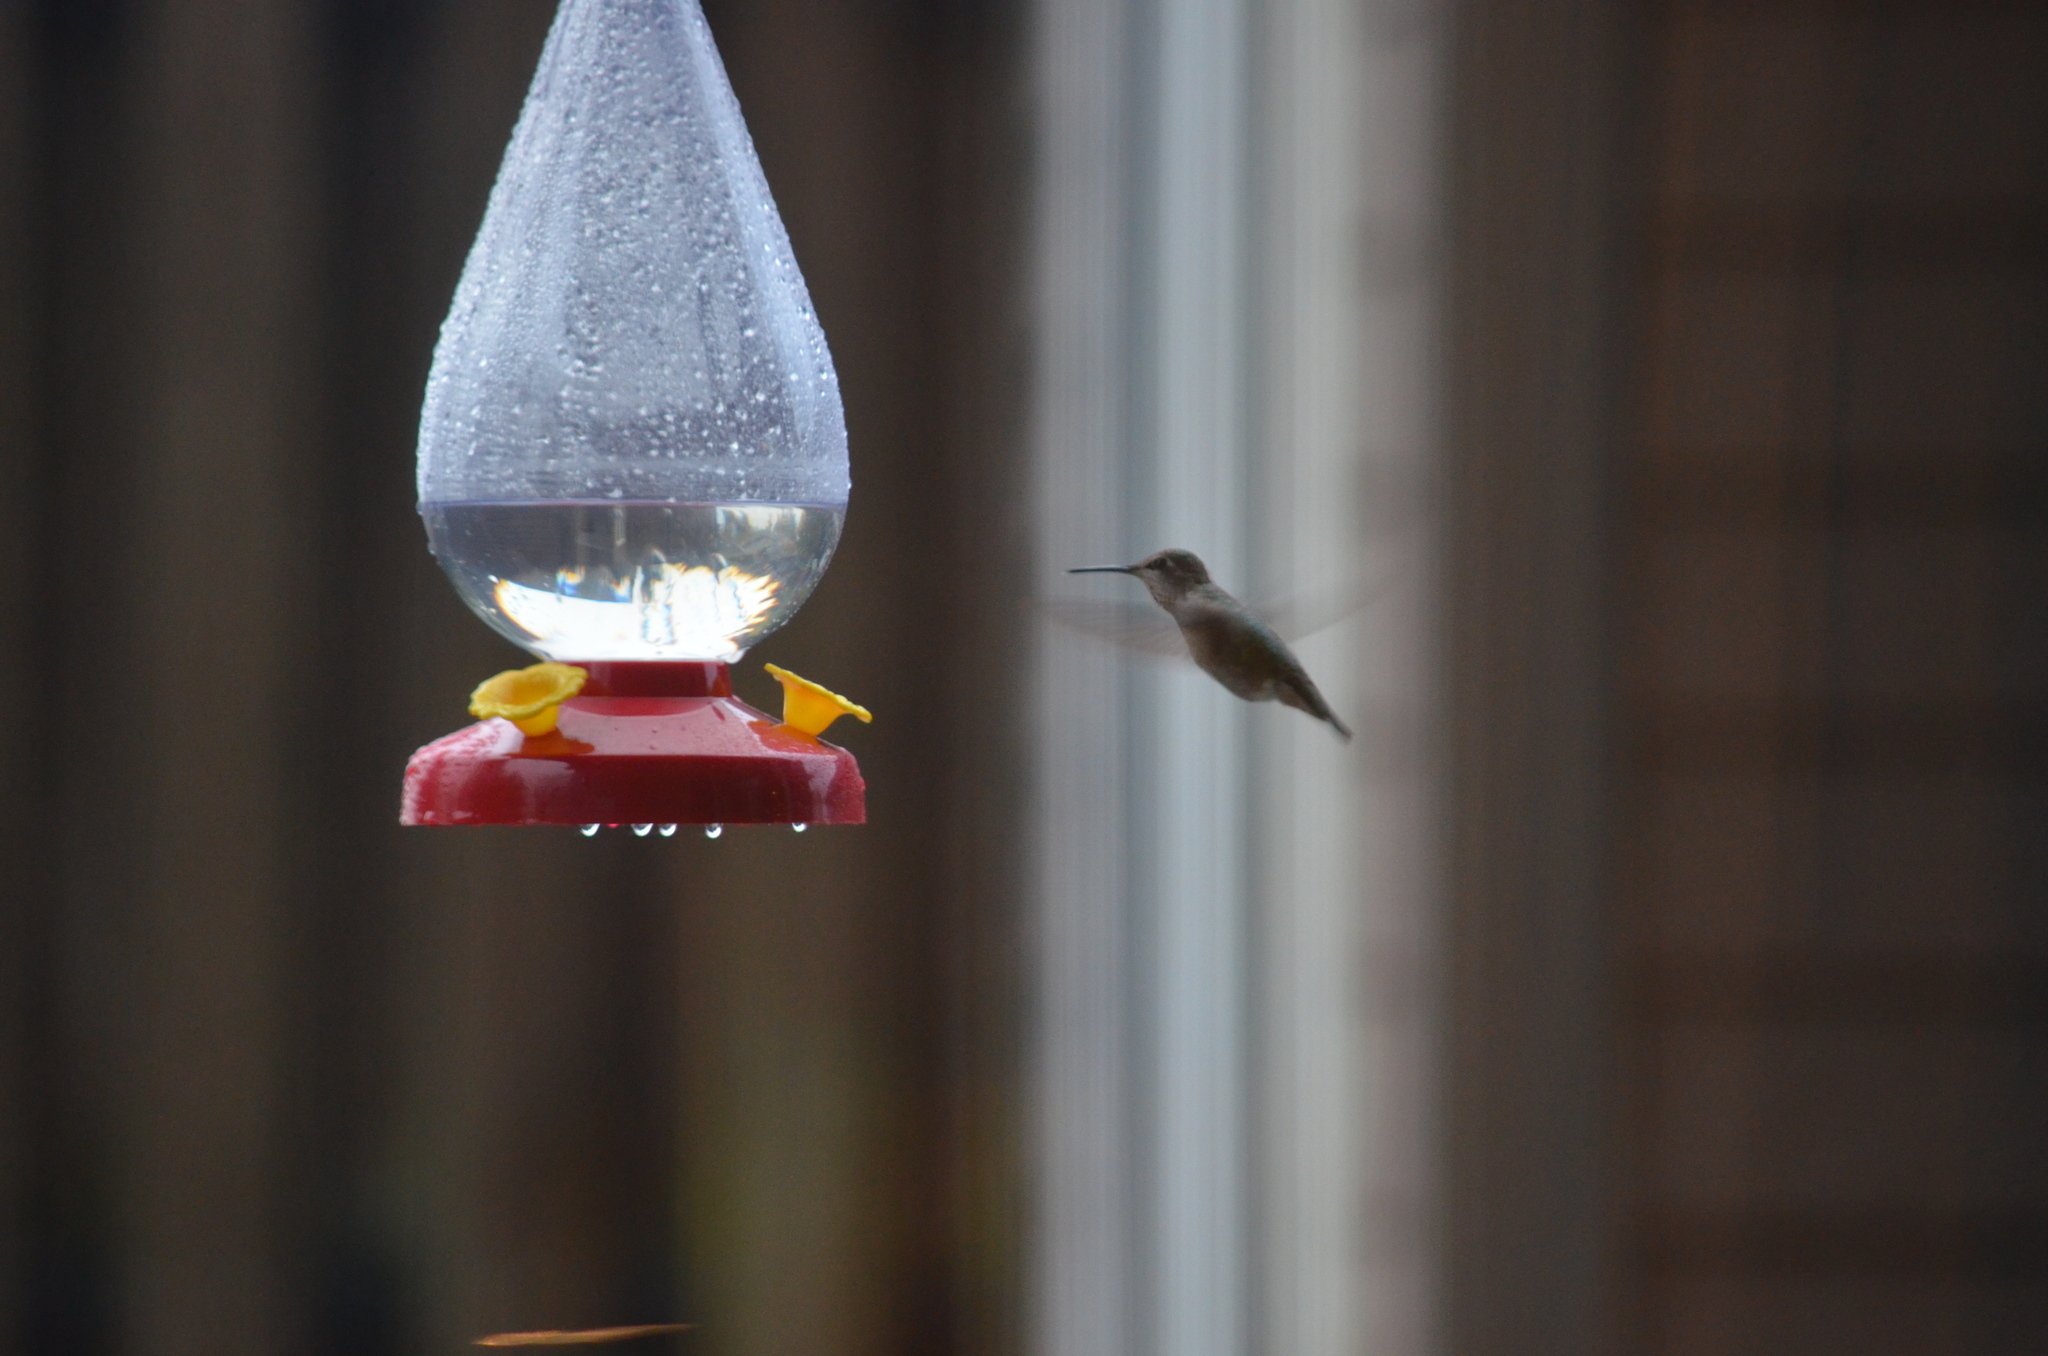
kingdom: Animalia
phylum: Chordata
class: Aves
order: Apodiformes
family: Trochilidae
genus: Calypte
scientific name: Calypte anna
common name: Anna's hummingbird
